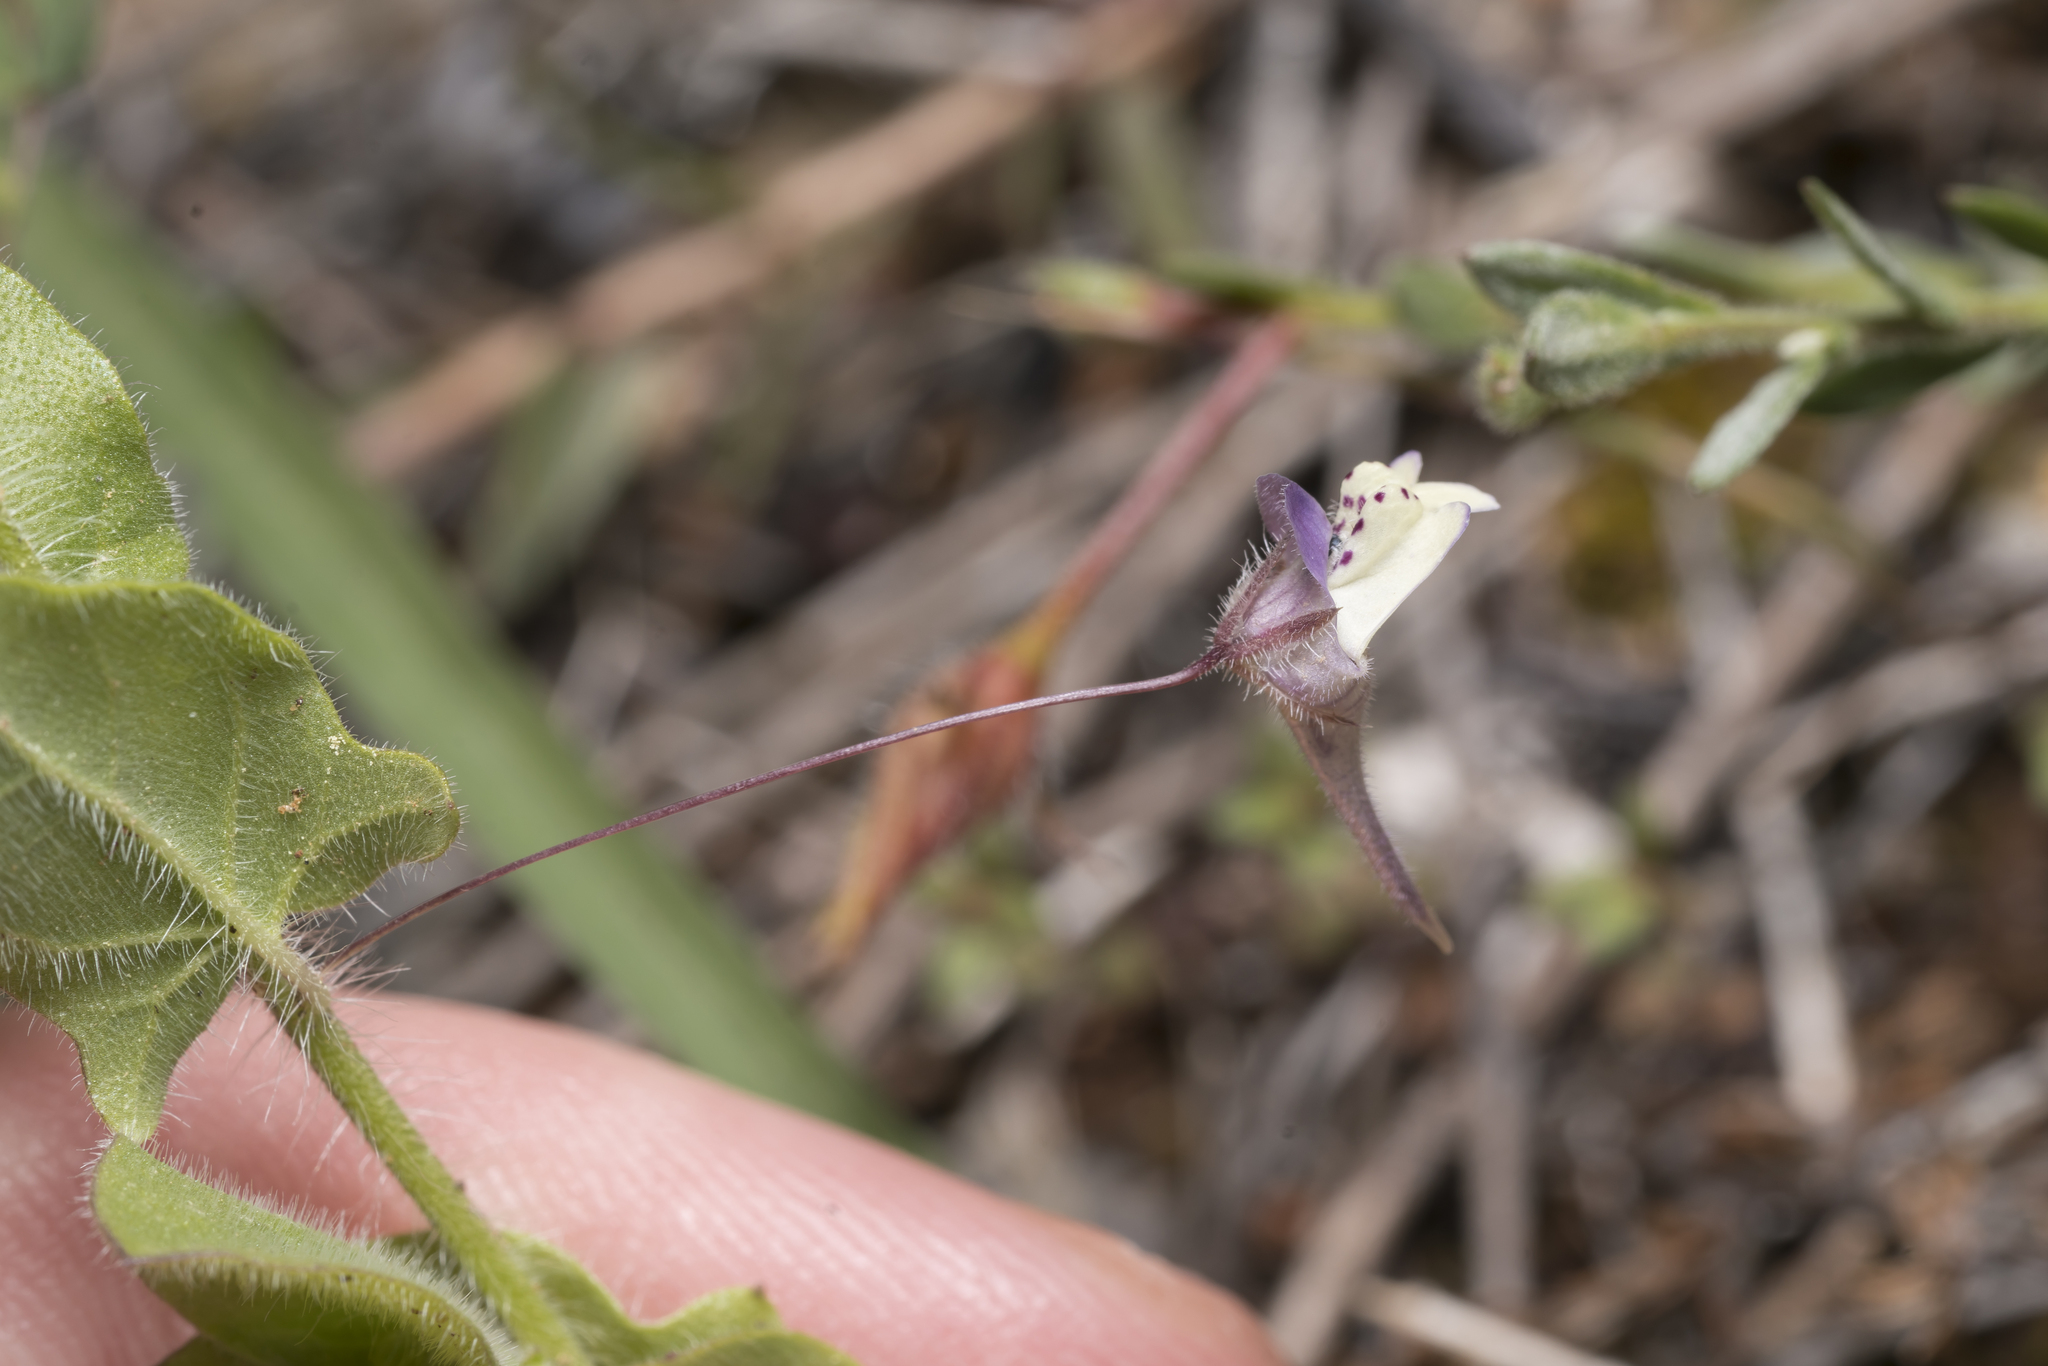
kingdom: Plantae
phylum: Tracheophyta
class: Magnoliopsida
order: Lamiales
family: Plantaginaceae
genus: Kickxia
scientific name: Kickxia commutata
